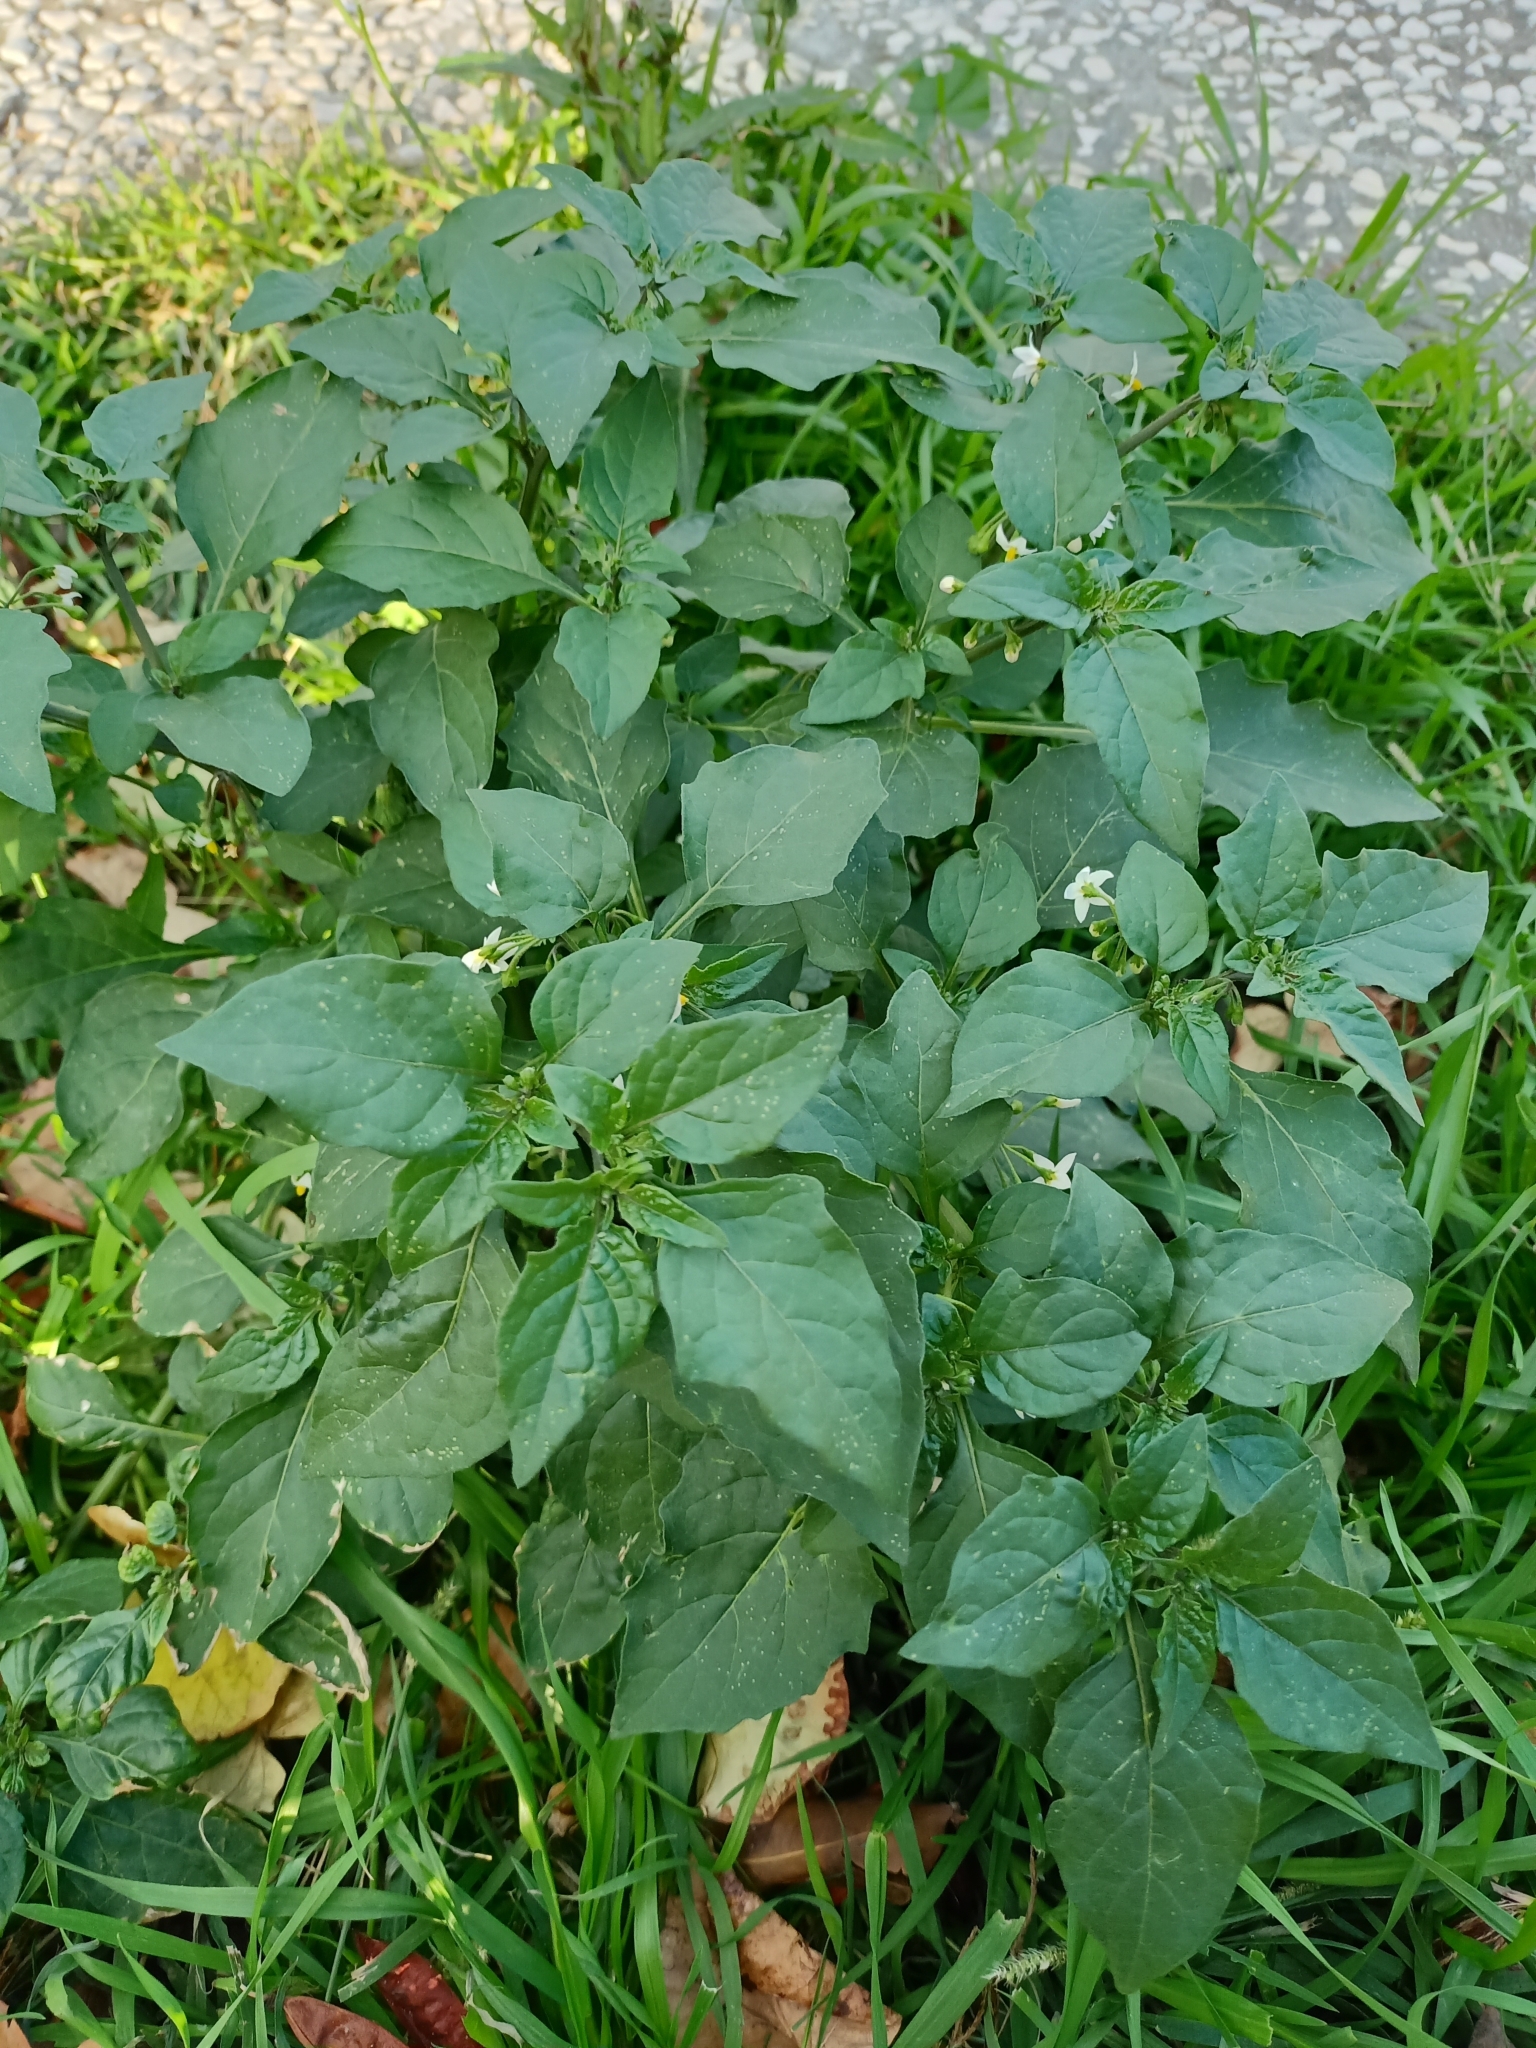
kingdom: Plantae
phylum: Tracheophyta
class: Magnoliopsida
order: Solanales
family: Solanaceae
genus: Solanum
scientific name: Solanum nigrum
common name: Black nightshade
